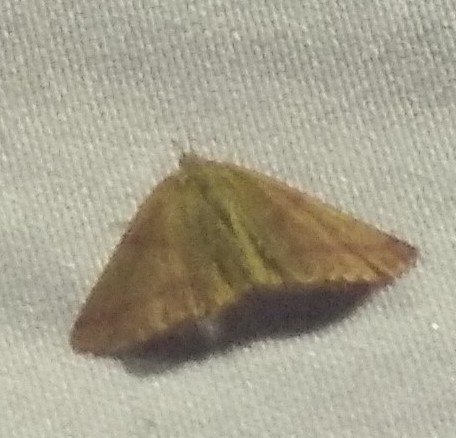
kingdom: Animalia
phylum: Arthropoda
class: Insecta
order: Lepidoptera
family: Geometridae
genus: Lythria
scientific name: Lythria purpuraria
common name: Purple-barred yellow
